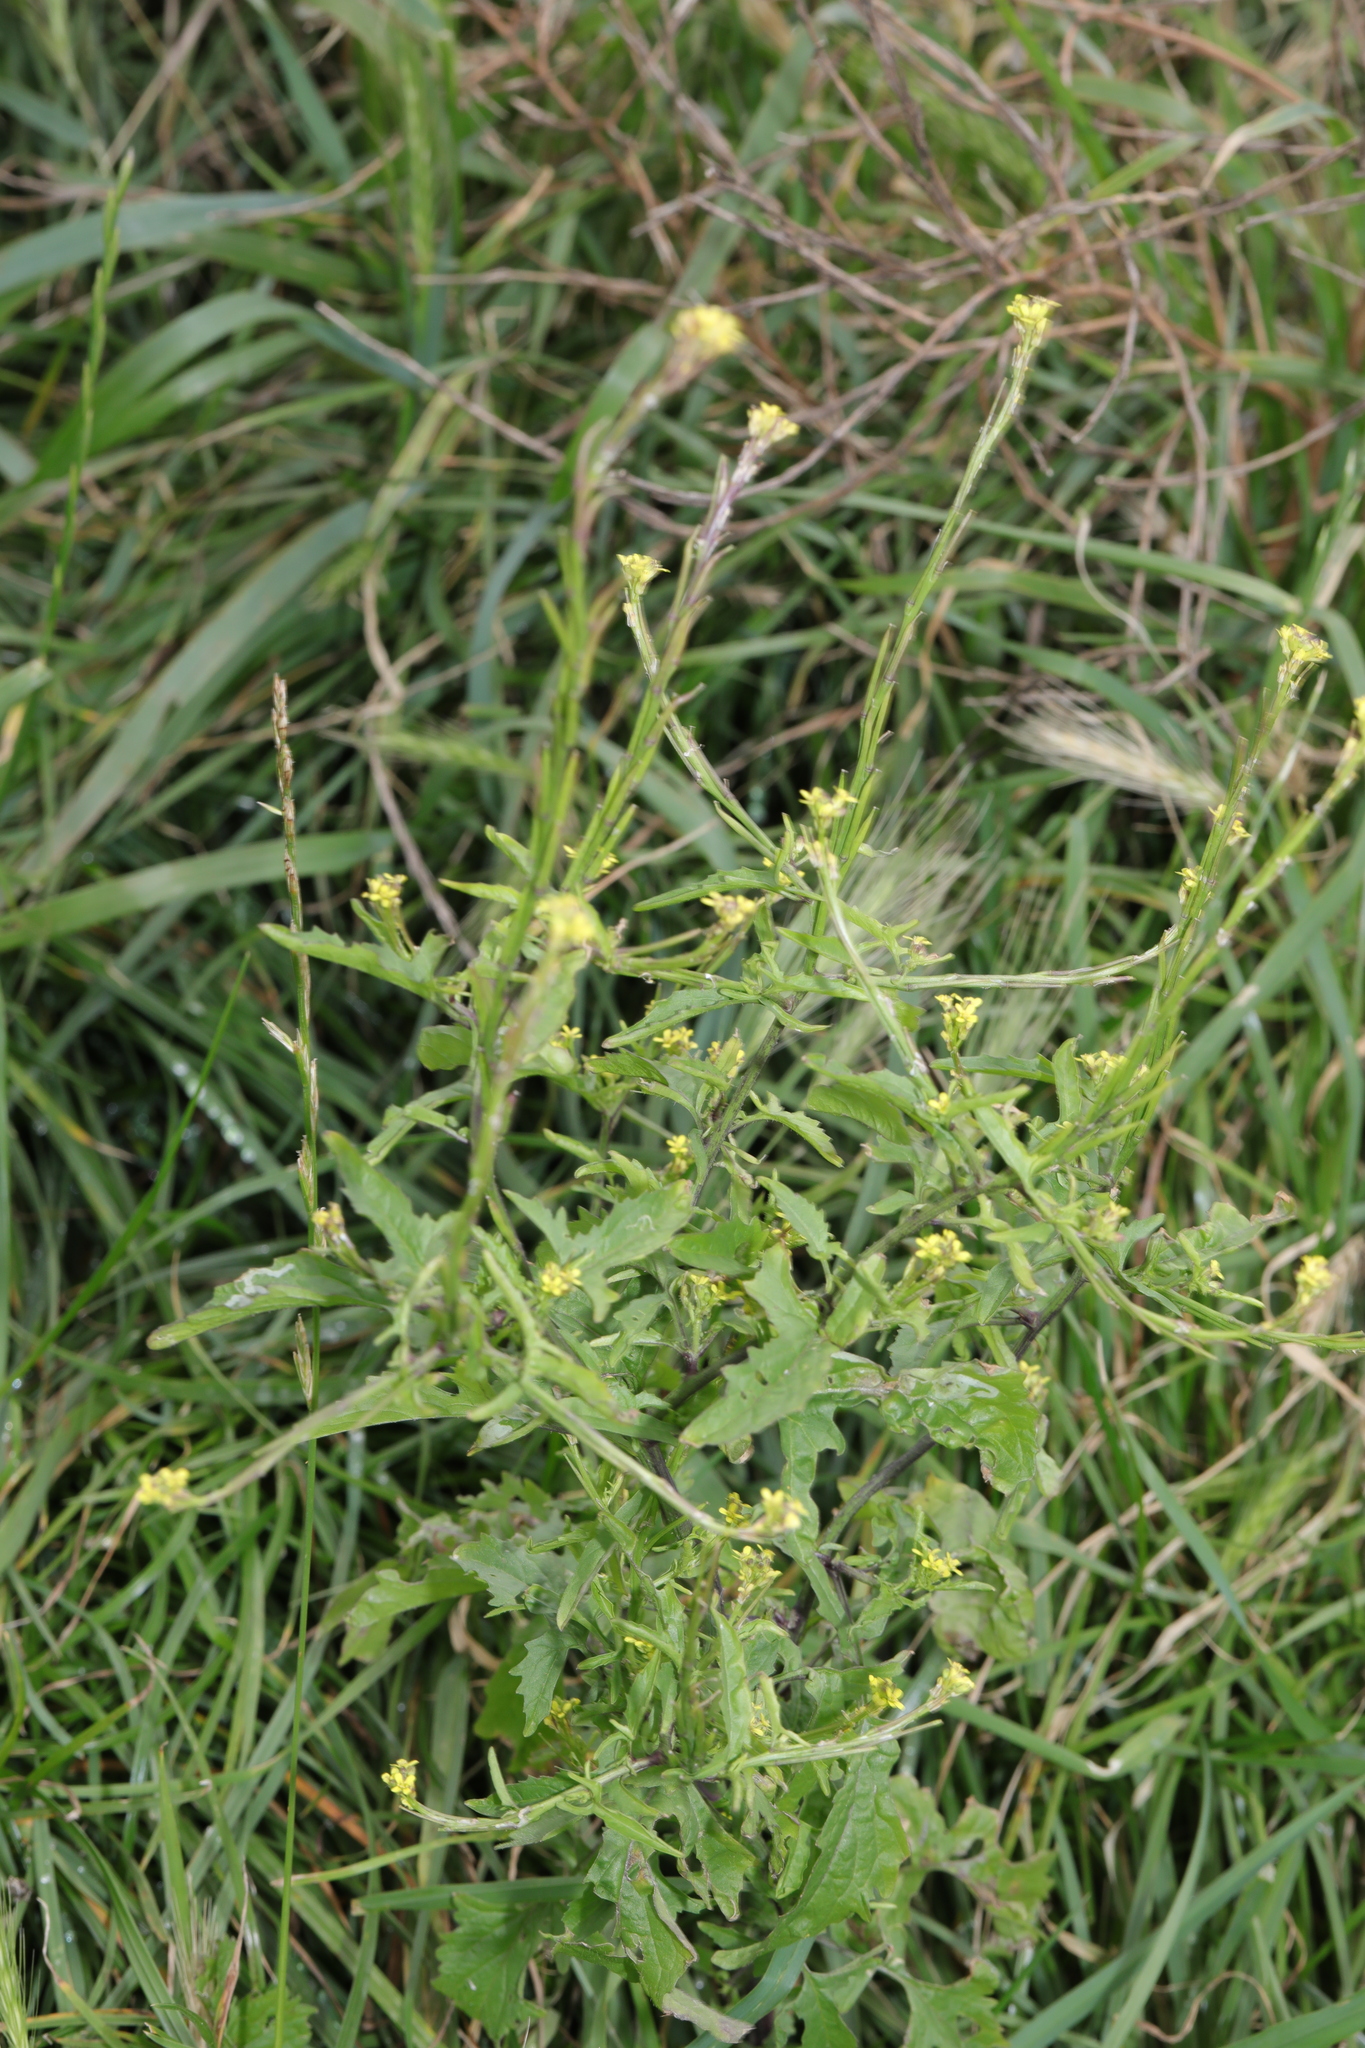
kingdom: Plantae
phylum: Tracheophyta
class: Magnoliopsida
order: Brassicales
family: Brassicaceae
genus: Sisymbrium
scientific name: Sisymbrium officinale
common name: Hedge mustard
